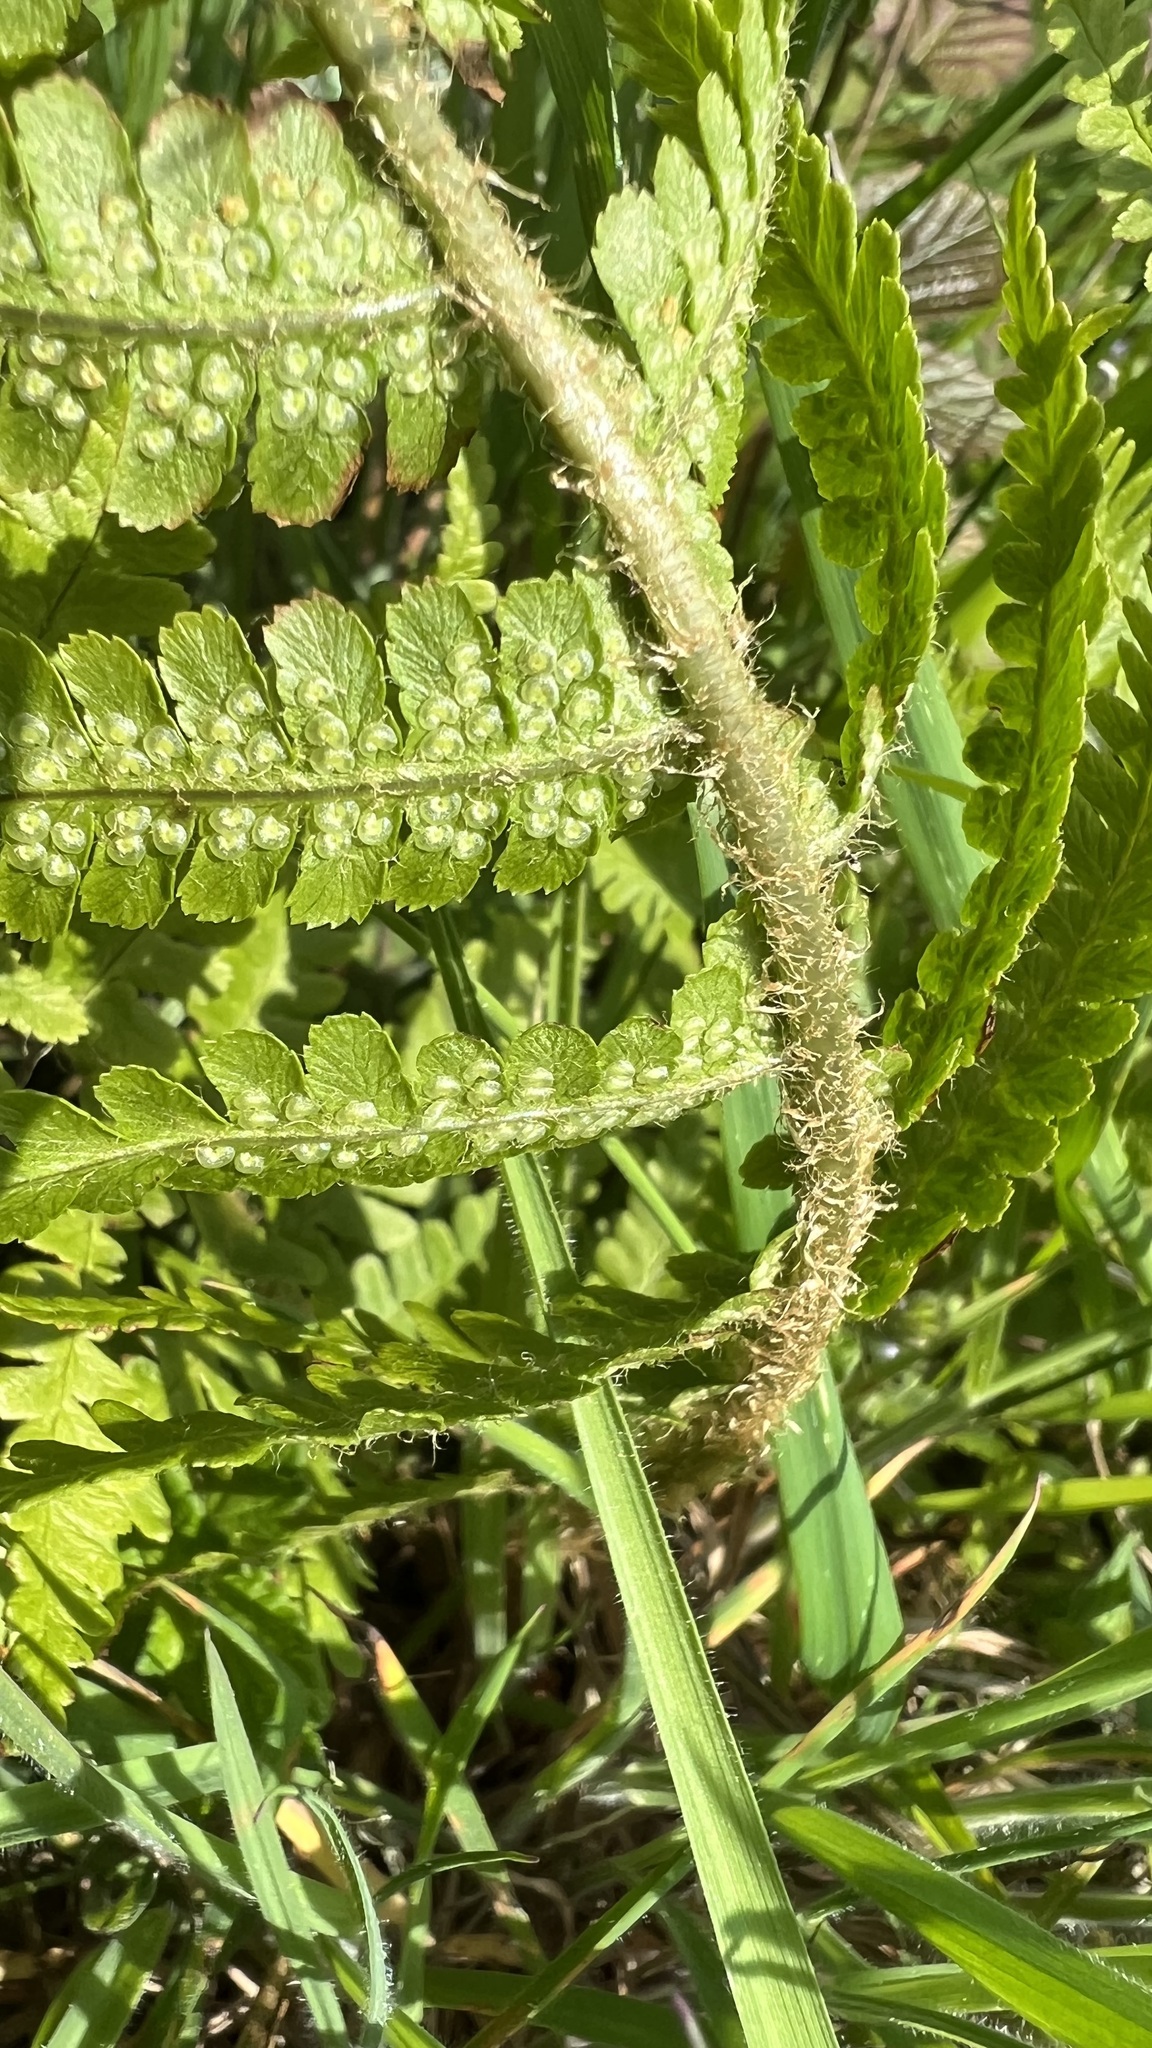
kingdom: Plantae
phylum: Tracheophyta
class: Polypodiopsida
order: Polypodiales
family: Dryopteridaceae
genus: Dryopteris
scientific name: Dryopteris filix-mas
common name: Male fern
